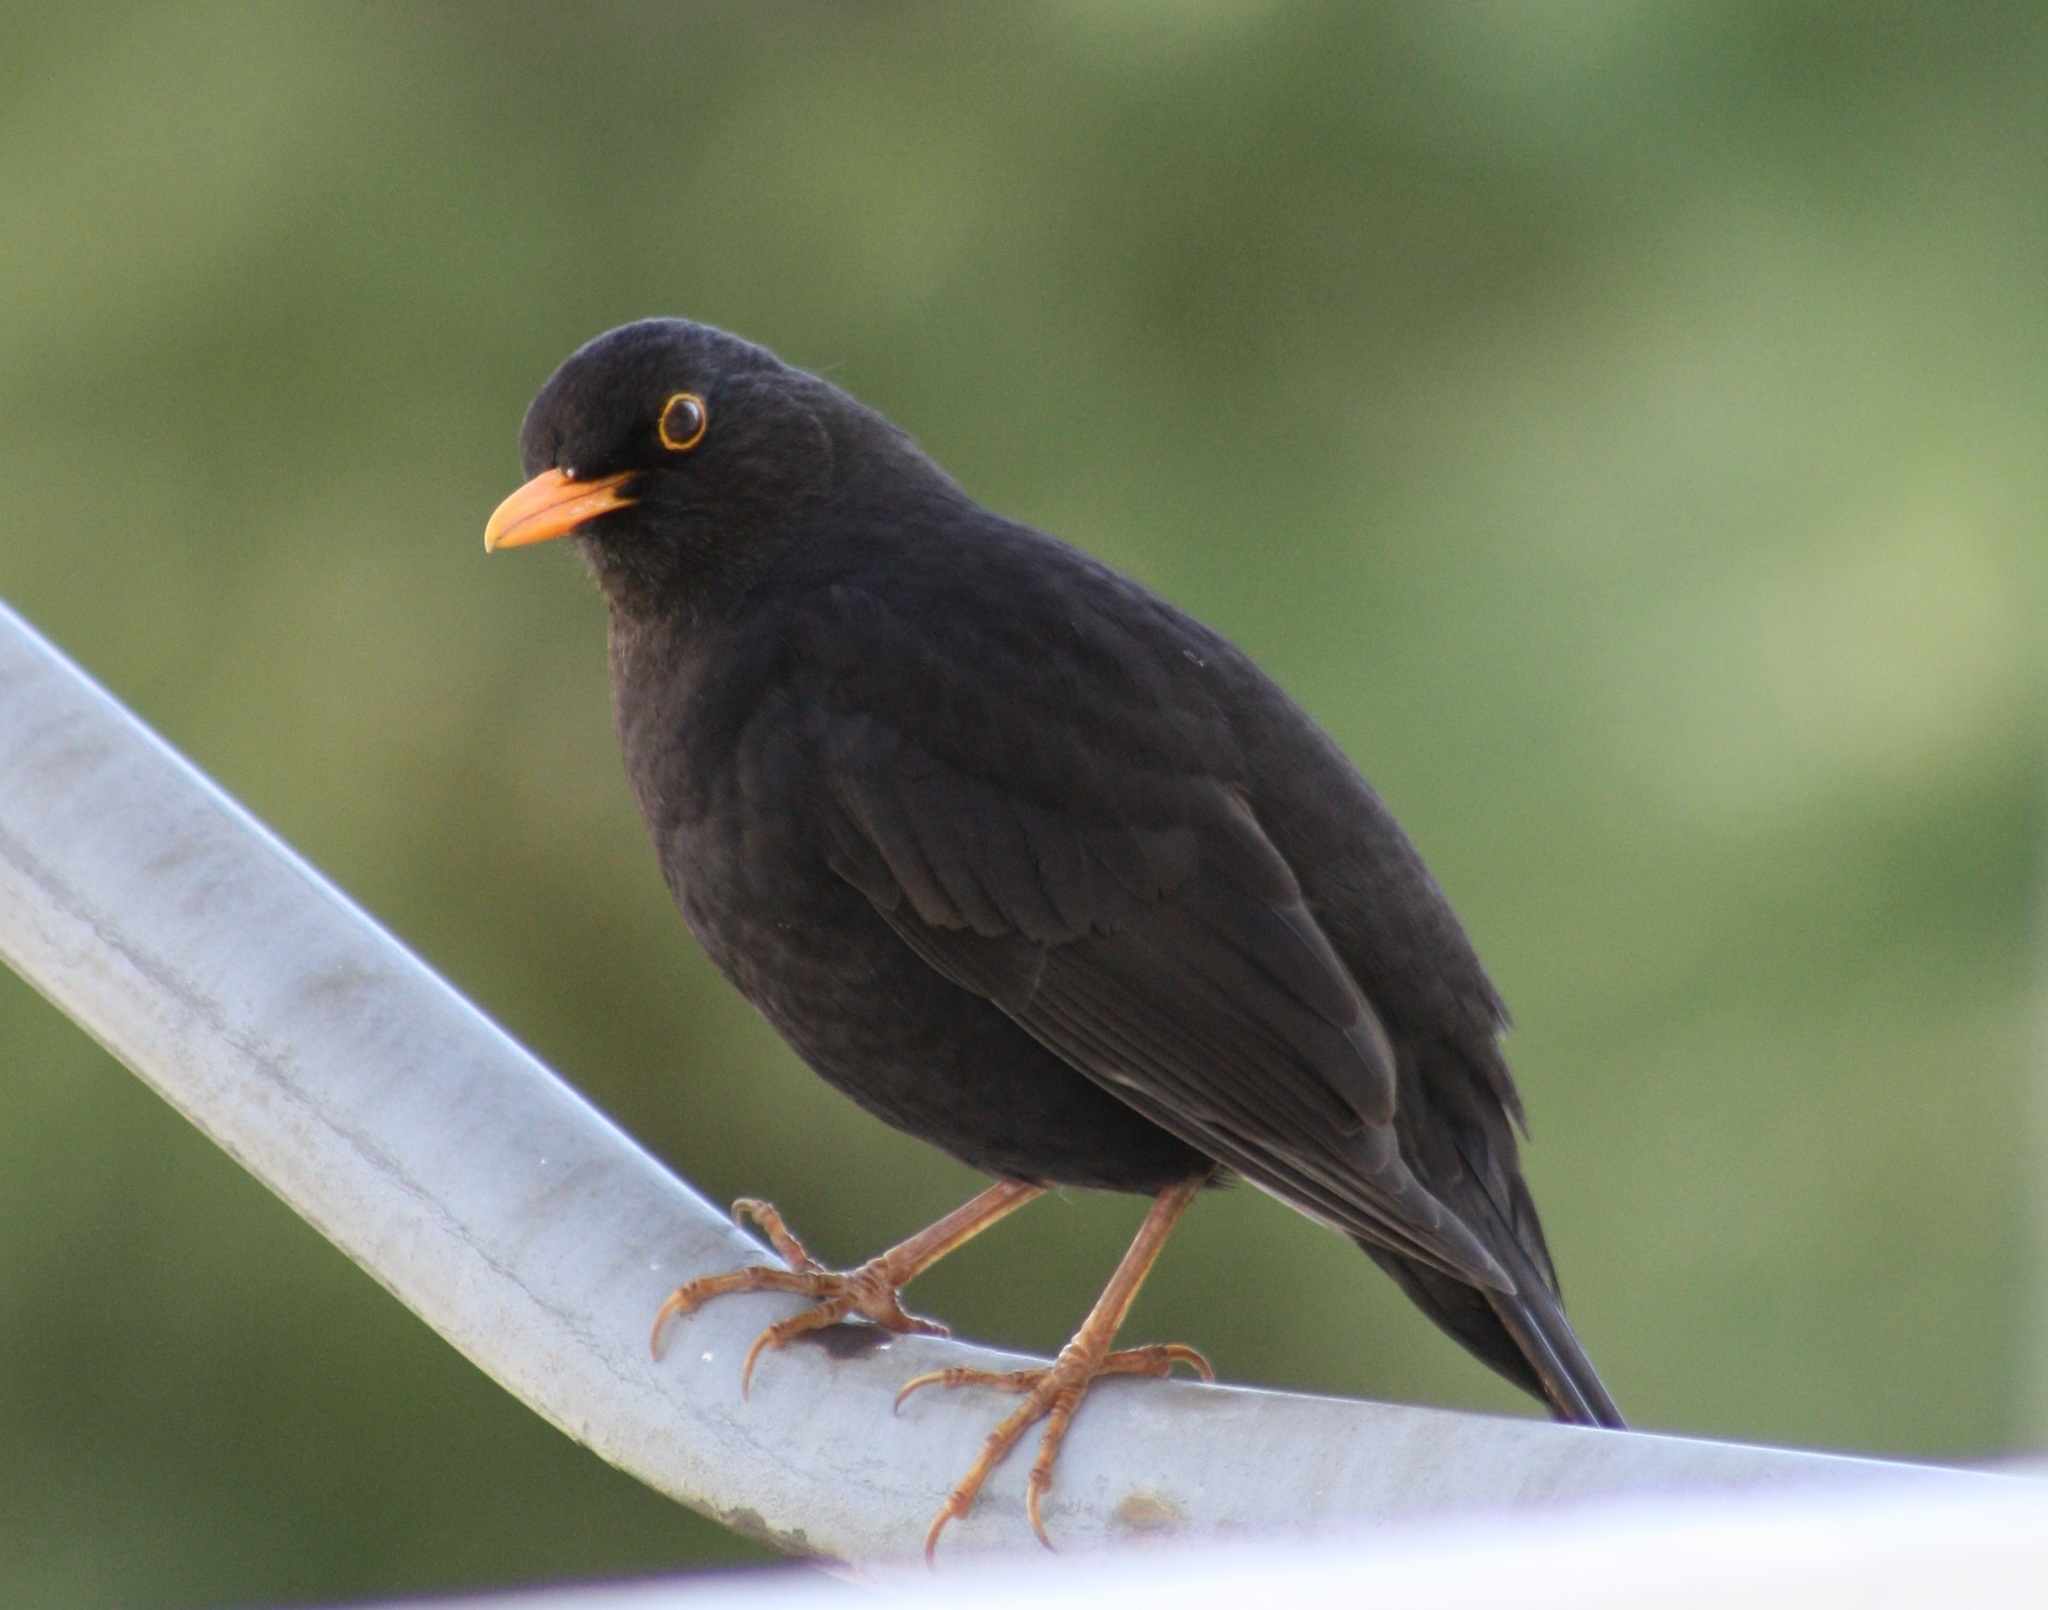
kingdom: Animalia
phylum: Chordata
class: Aves
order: Passeriformes
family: Turdidae
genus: Turdus
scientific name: Turdus merula
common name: Common blackbird
